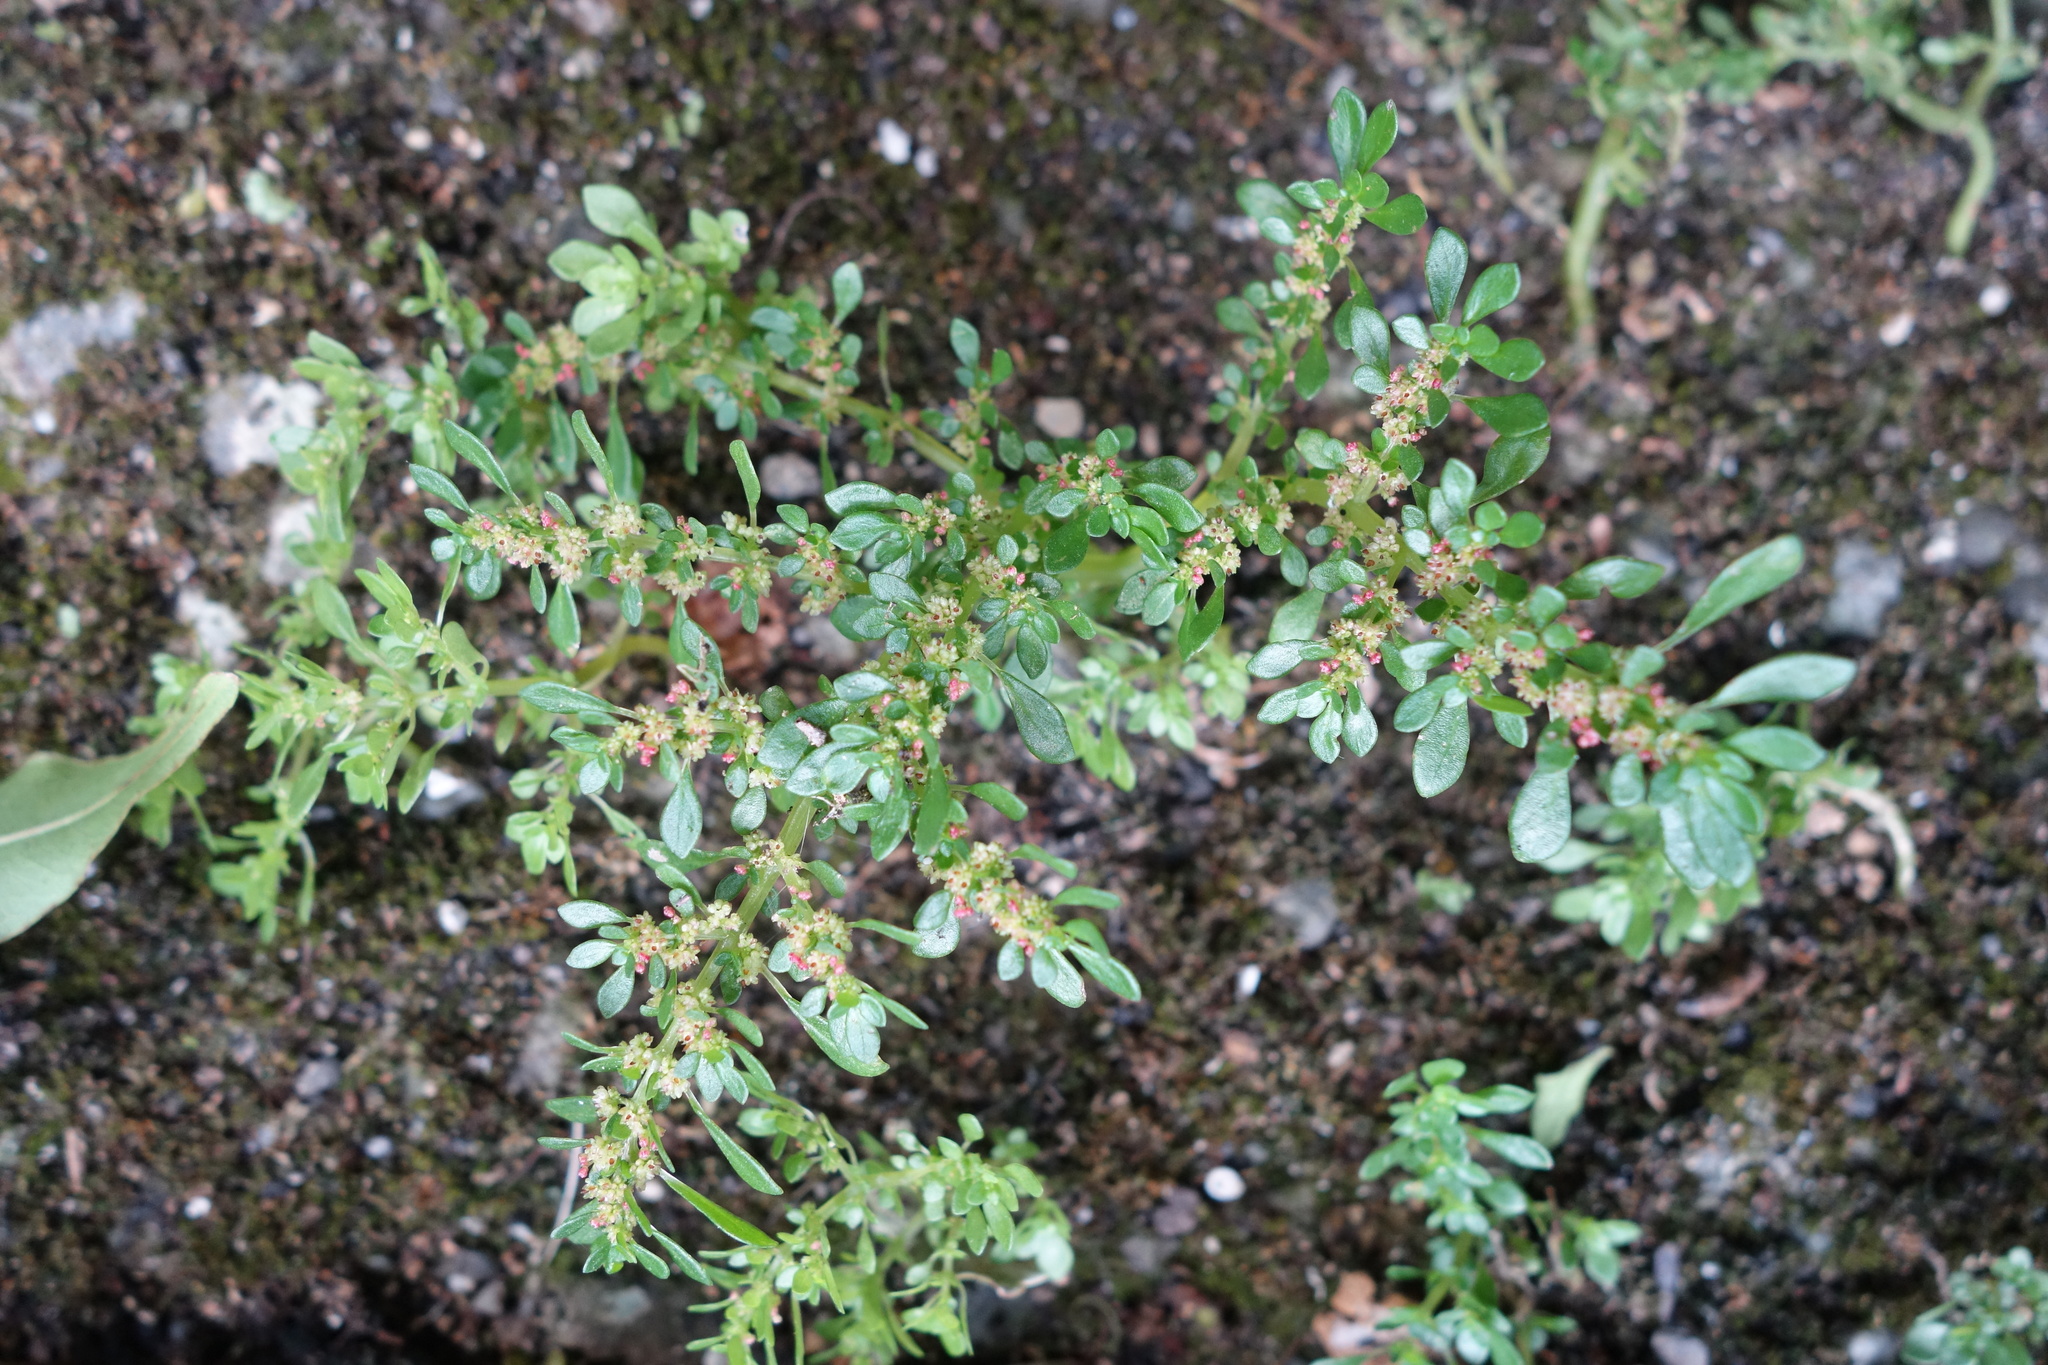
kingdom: Plantae
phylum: Tracheophyta
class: Magnoliopsida
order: Rosales
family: Urticaceae
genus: Pilea
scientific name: Pilea microphylla
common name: Artillery-plant
